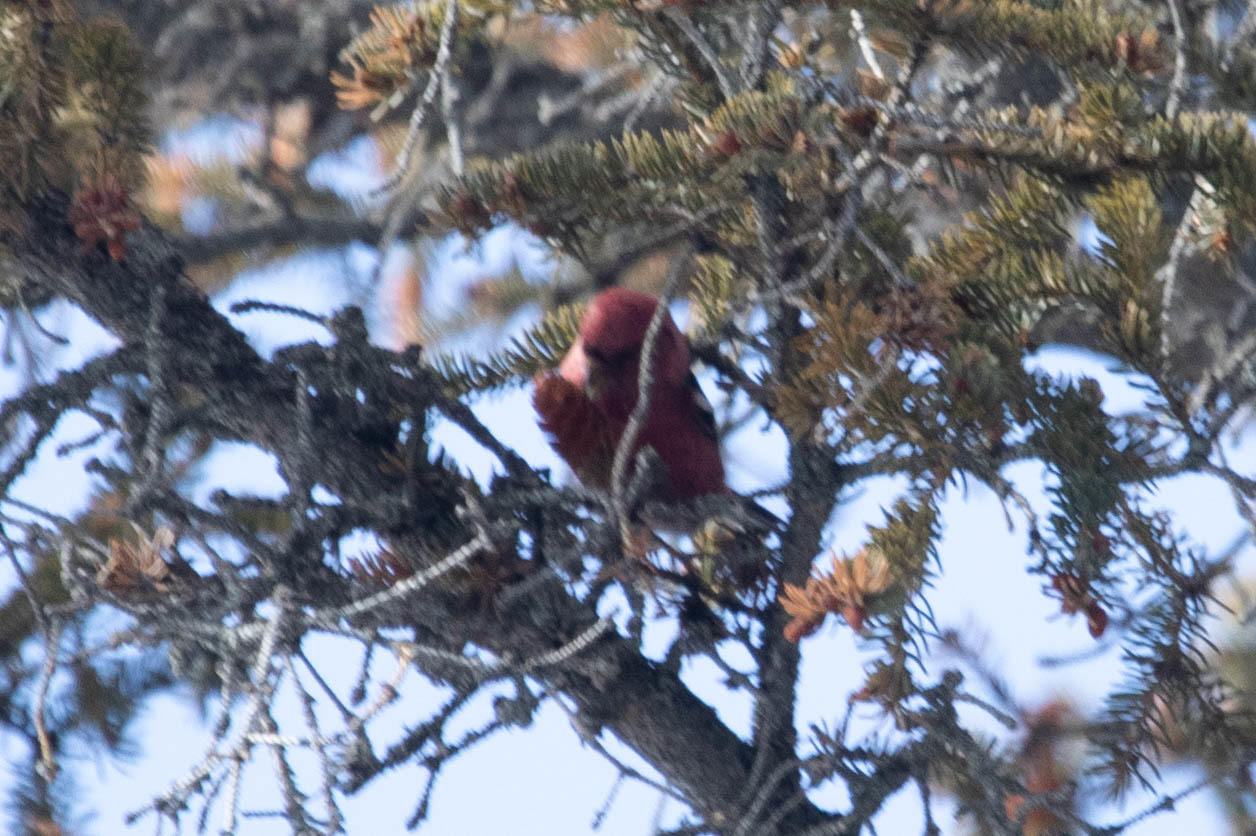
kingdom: Animalia
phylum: Chordata
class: Aves
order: Passeriformes
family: Fringillidae
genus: Loxia
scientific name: Loxia leucoptera
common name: Two-barred crossbill
